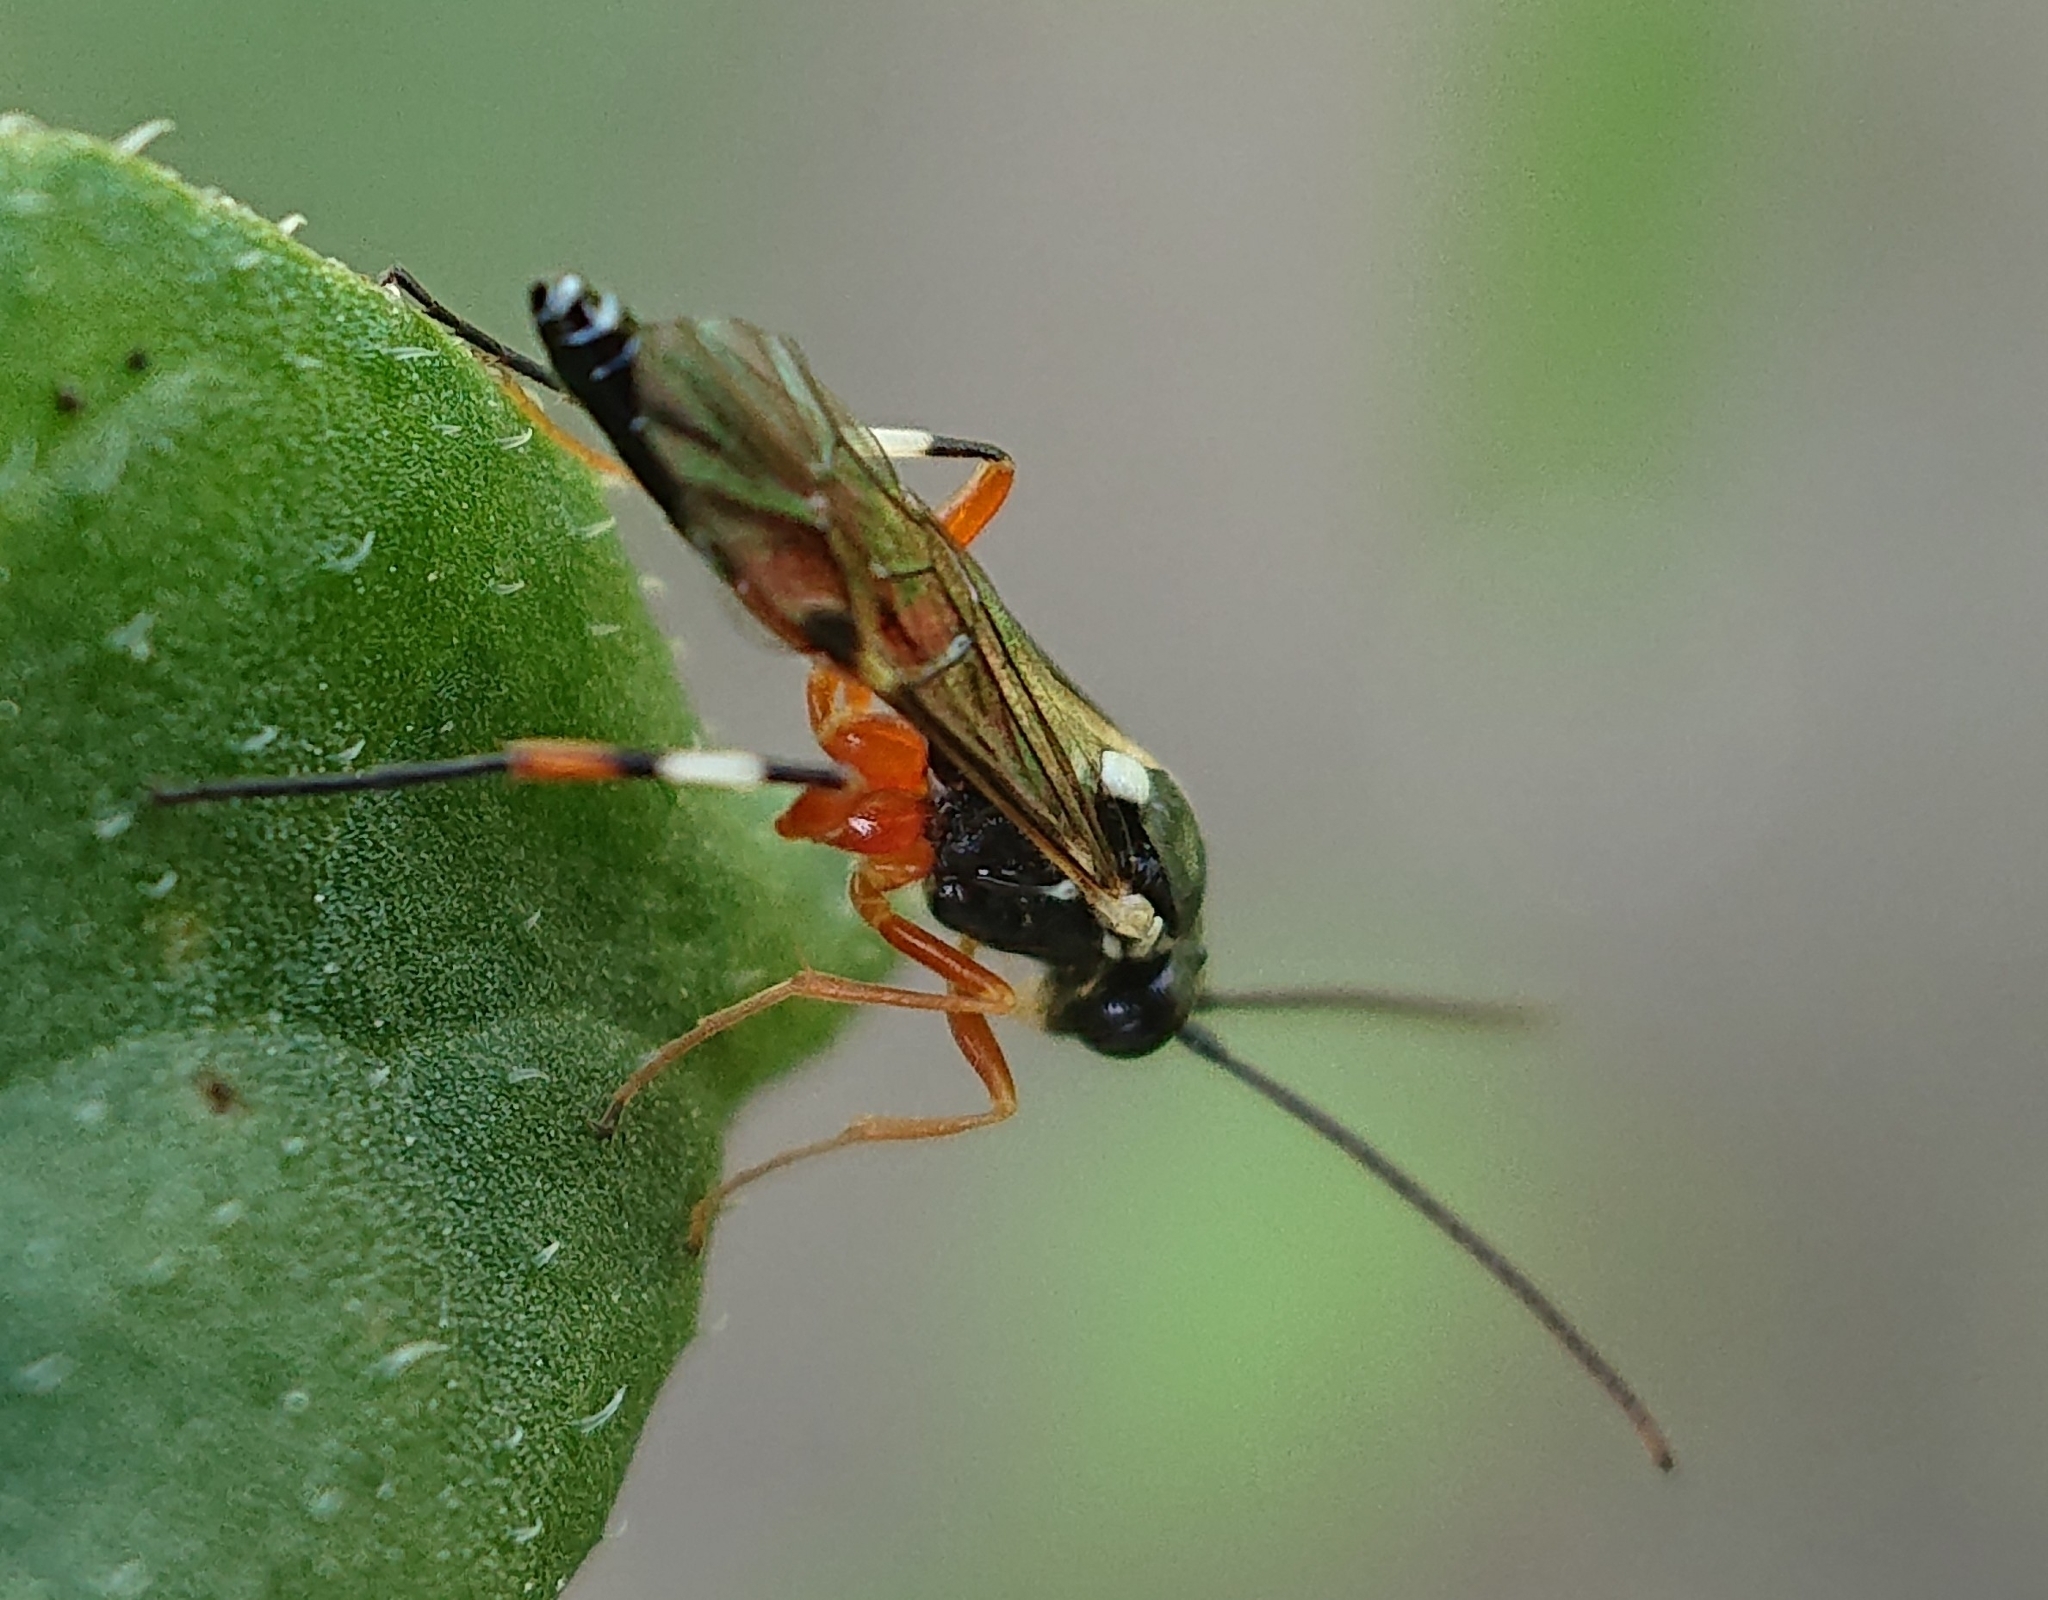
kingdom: Animalia
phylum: Arthropoda
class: Insecta
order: Hymenoptera
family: Ichneumonidae
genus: Diplazon
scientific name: Diplazon laetatorius
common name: Parasitoid wasp
